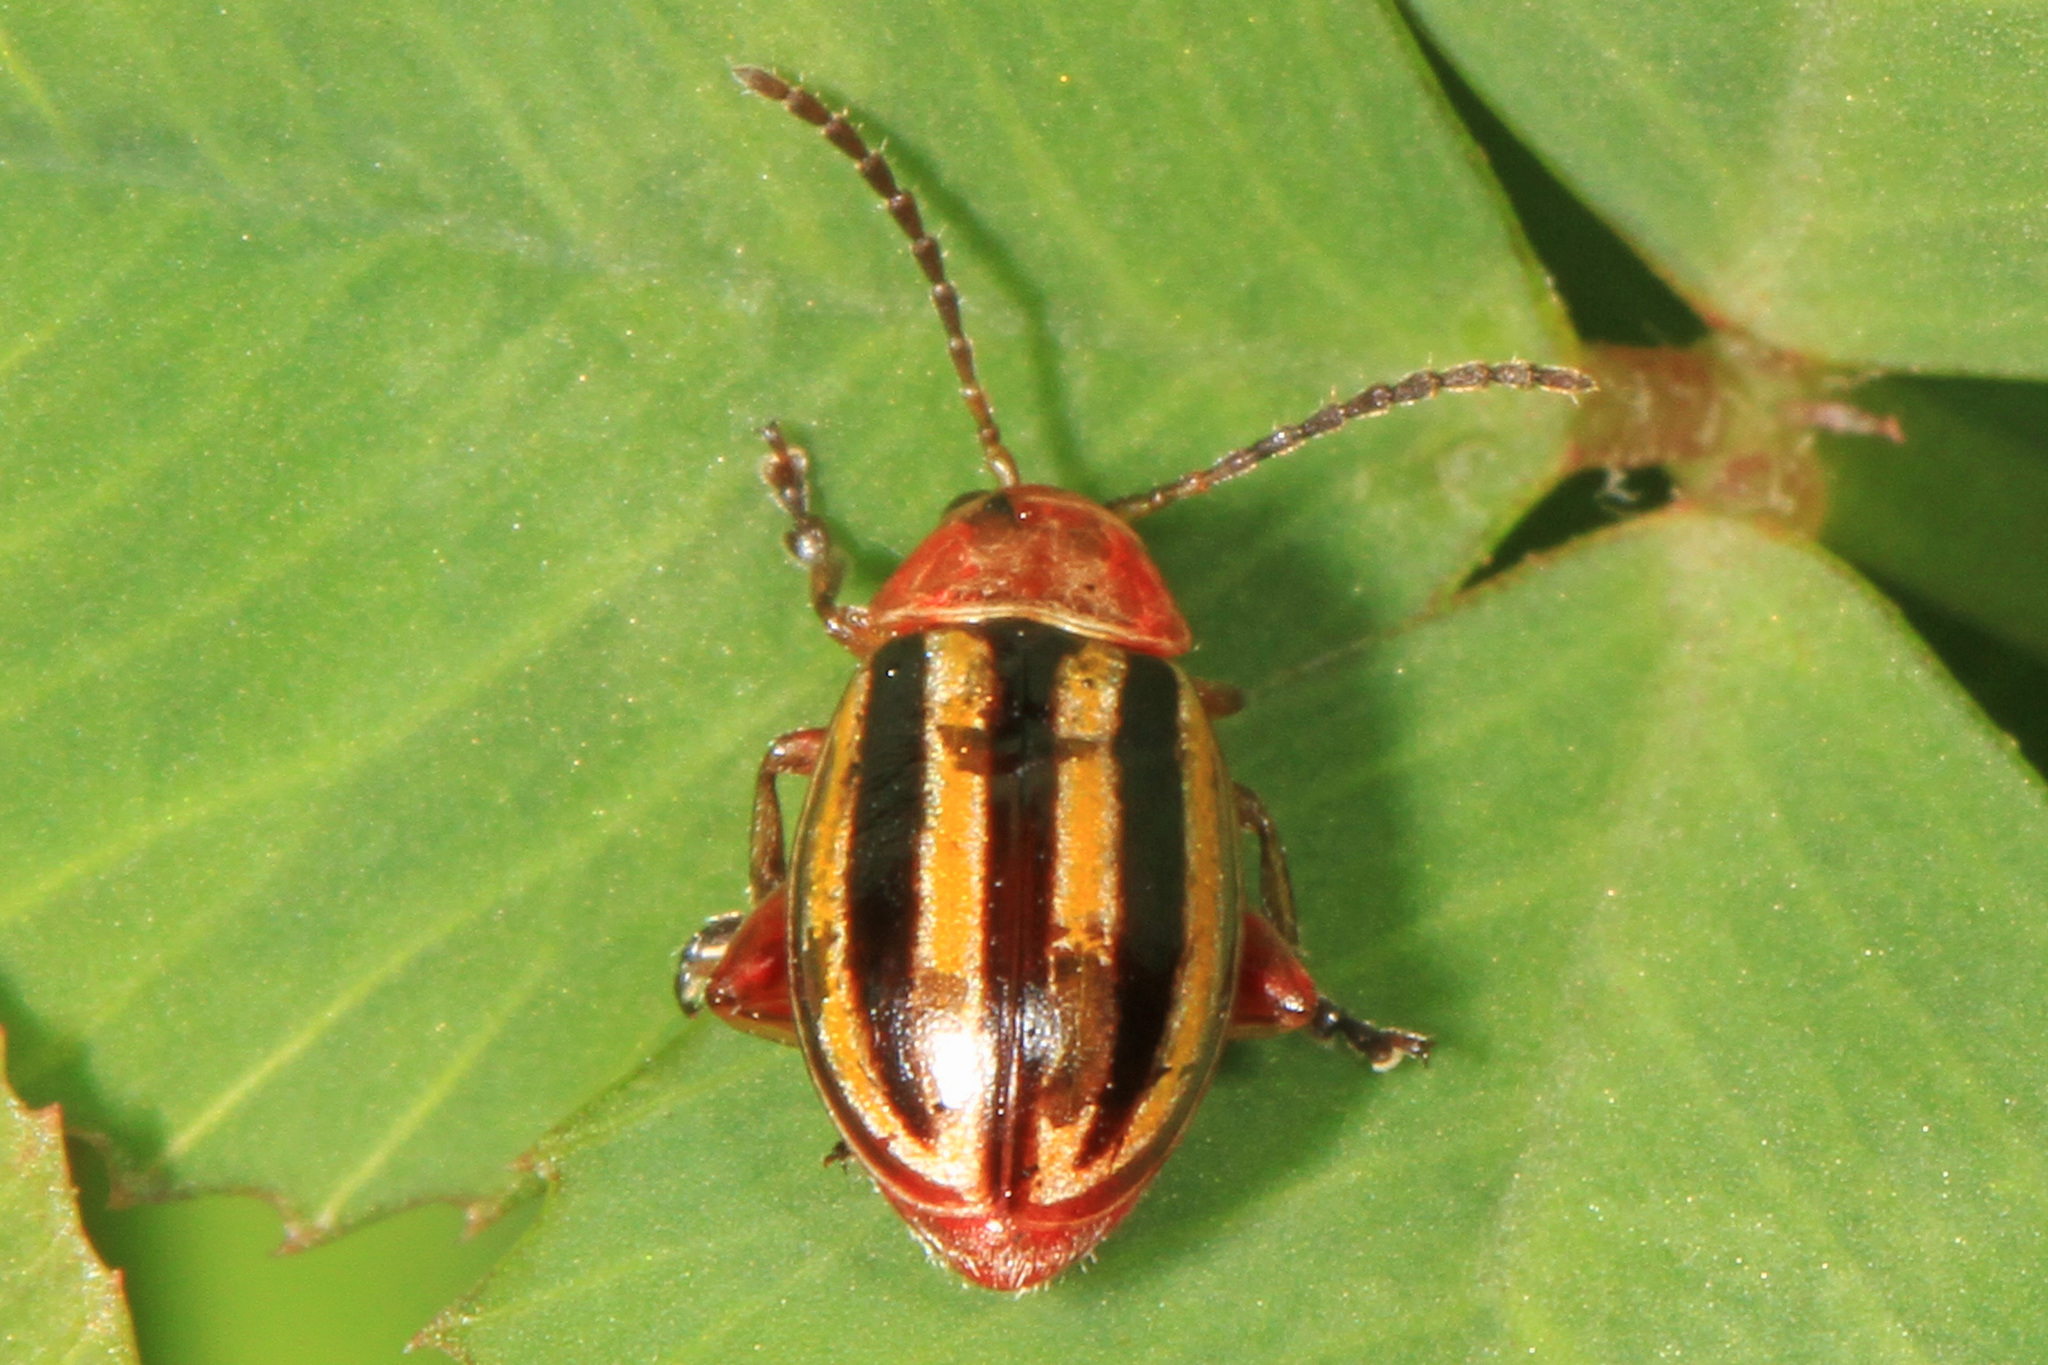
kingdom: Animalia
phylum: Arthropoda
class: Insecta
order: Coleoptera
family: Chrysomelidae
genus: Disonycha
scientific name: Disonycha admirabila
